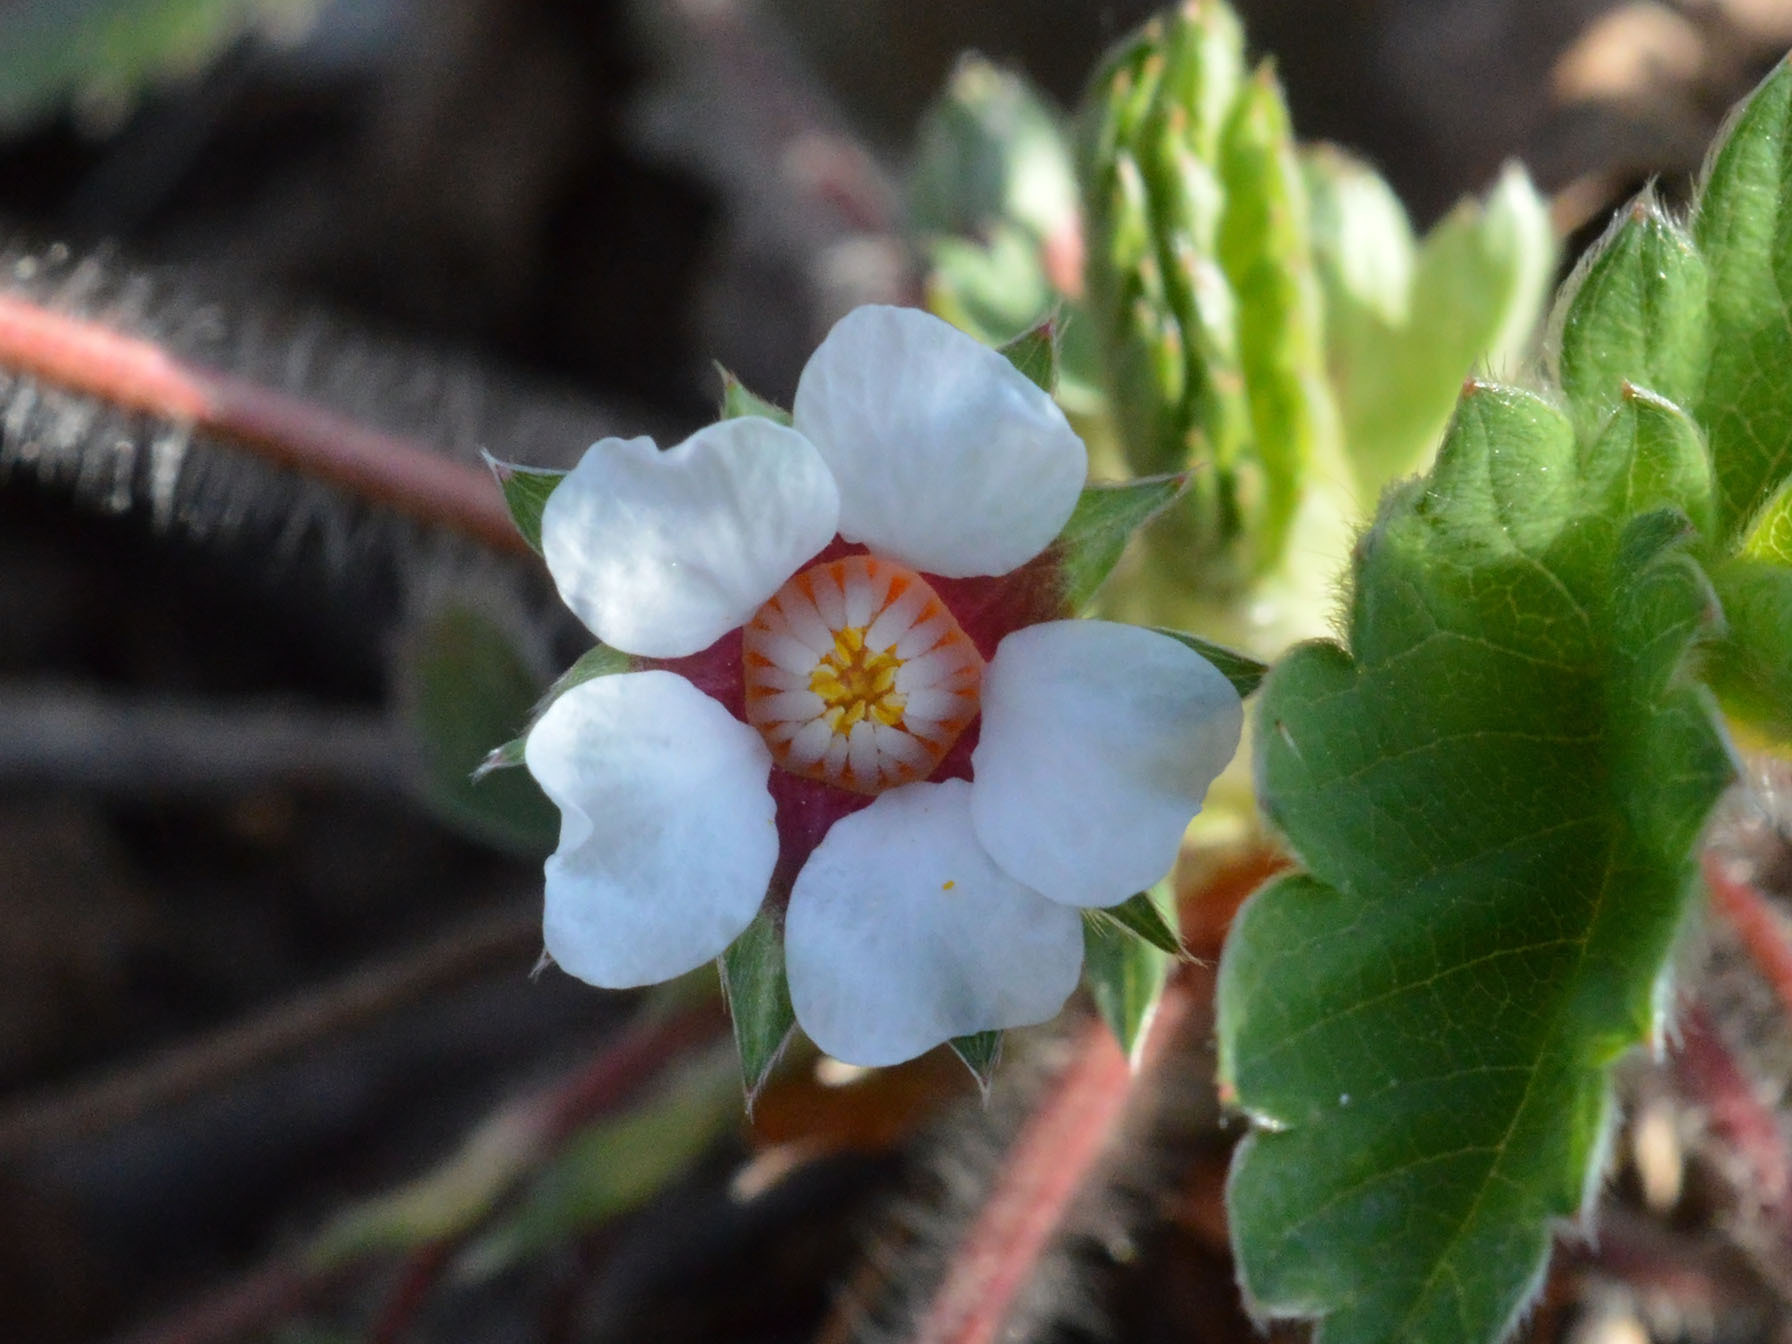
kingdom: Plantae
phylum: Tracheophyta
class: Magnoliopsida
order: Rosales
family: Rosaceae
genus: Potentilla
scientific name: Potentilla micrantha
